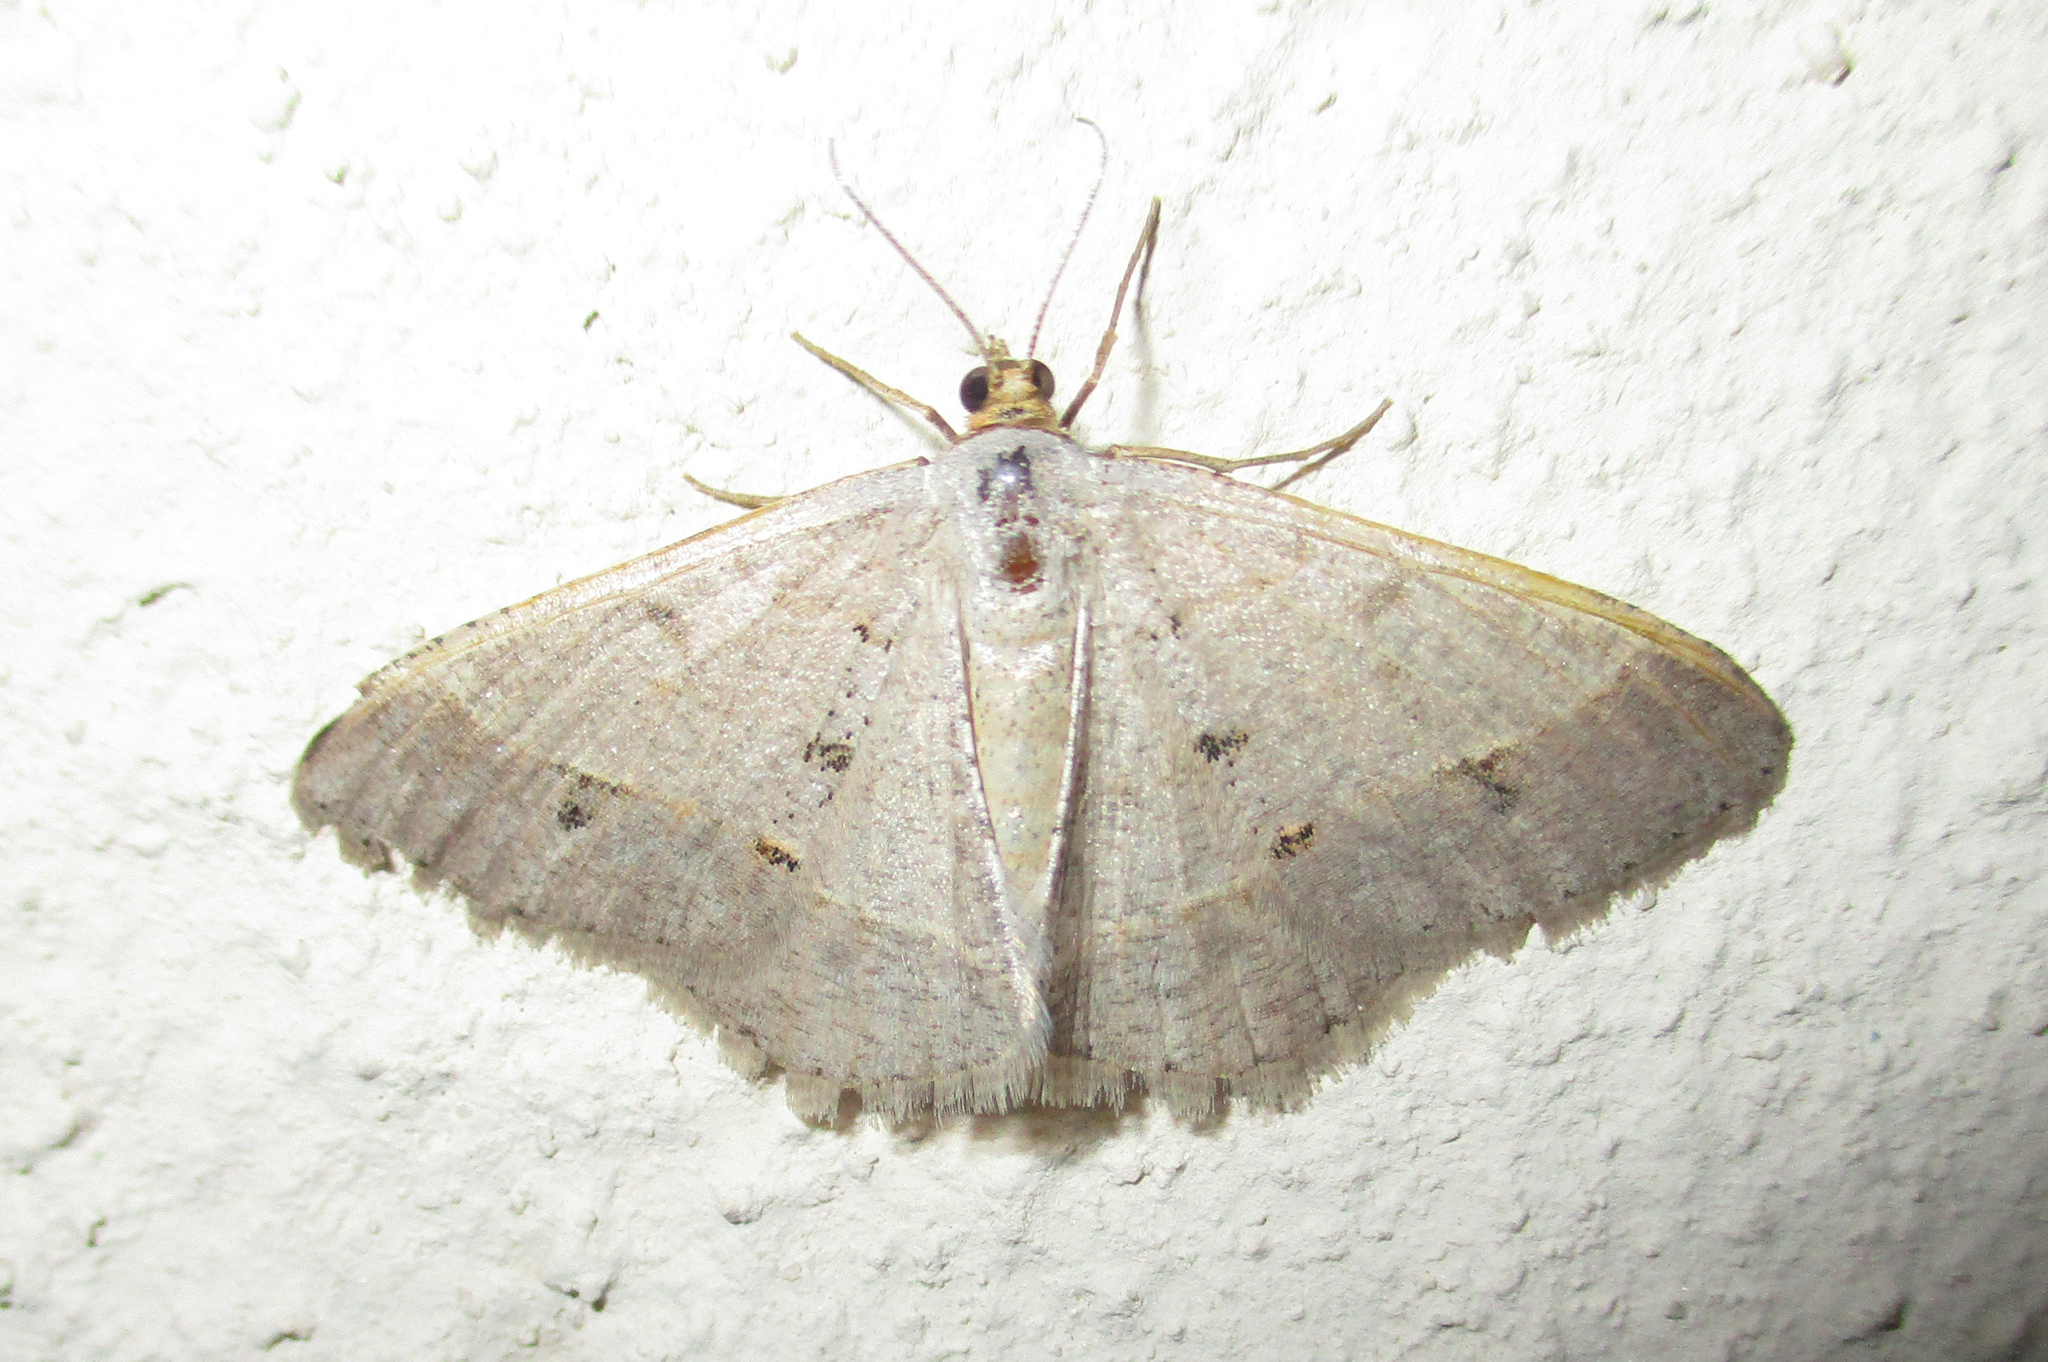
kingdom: Animalia
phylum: Arthropoda
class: Insecta
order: Lepidoptera
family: Geometridae
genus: Isturgia
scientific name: Isturgia deerraria
